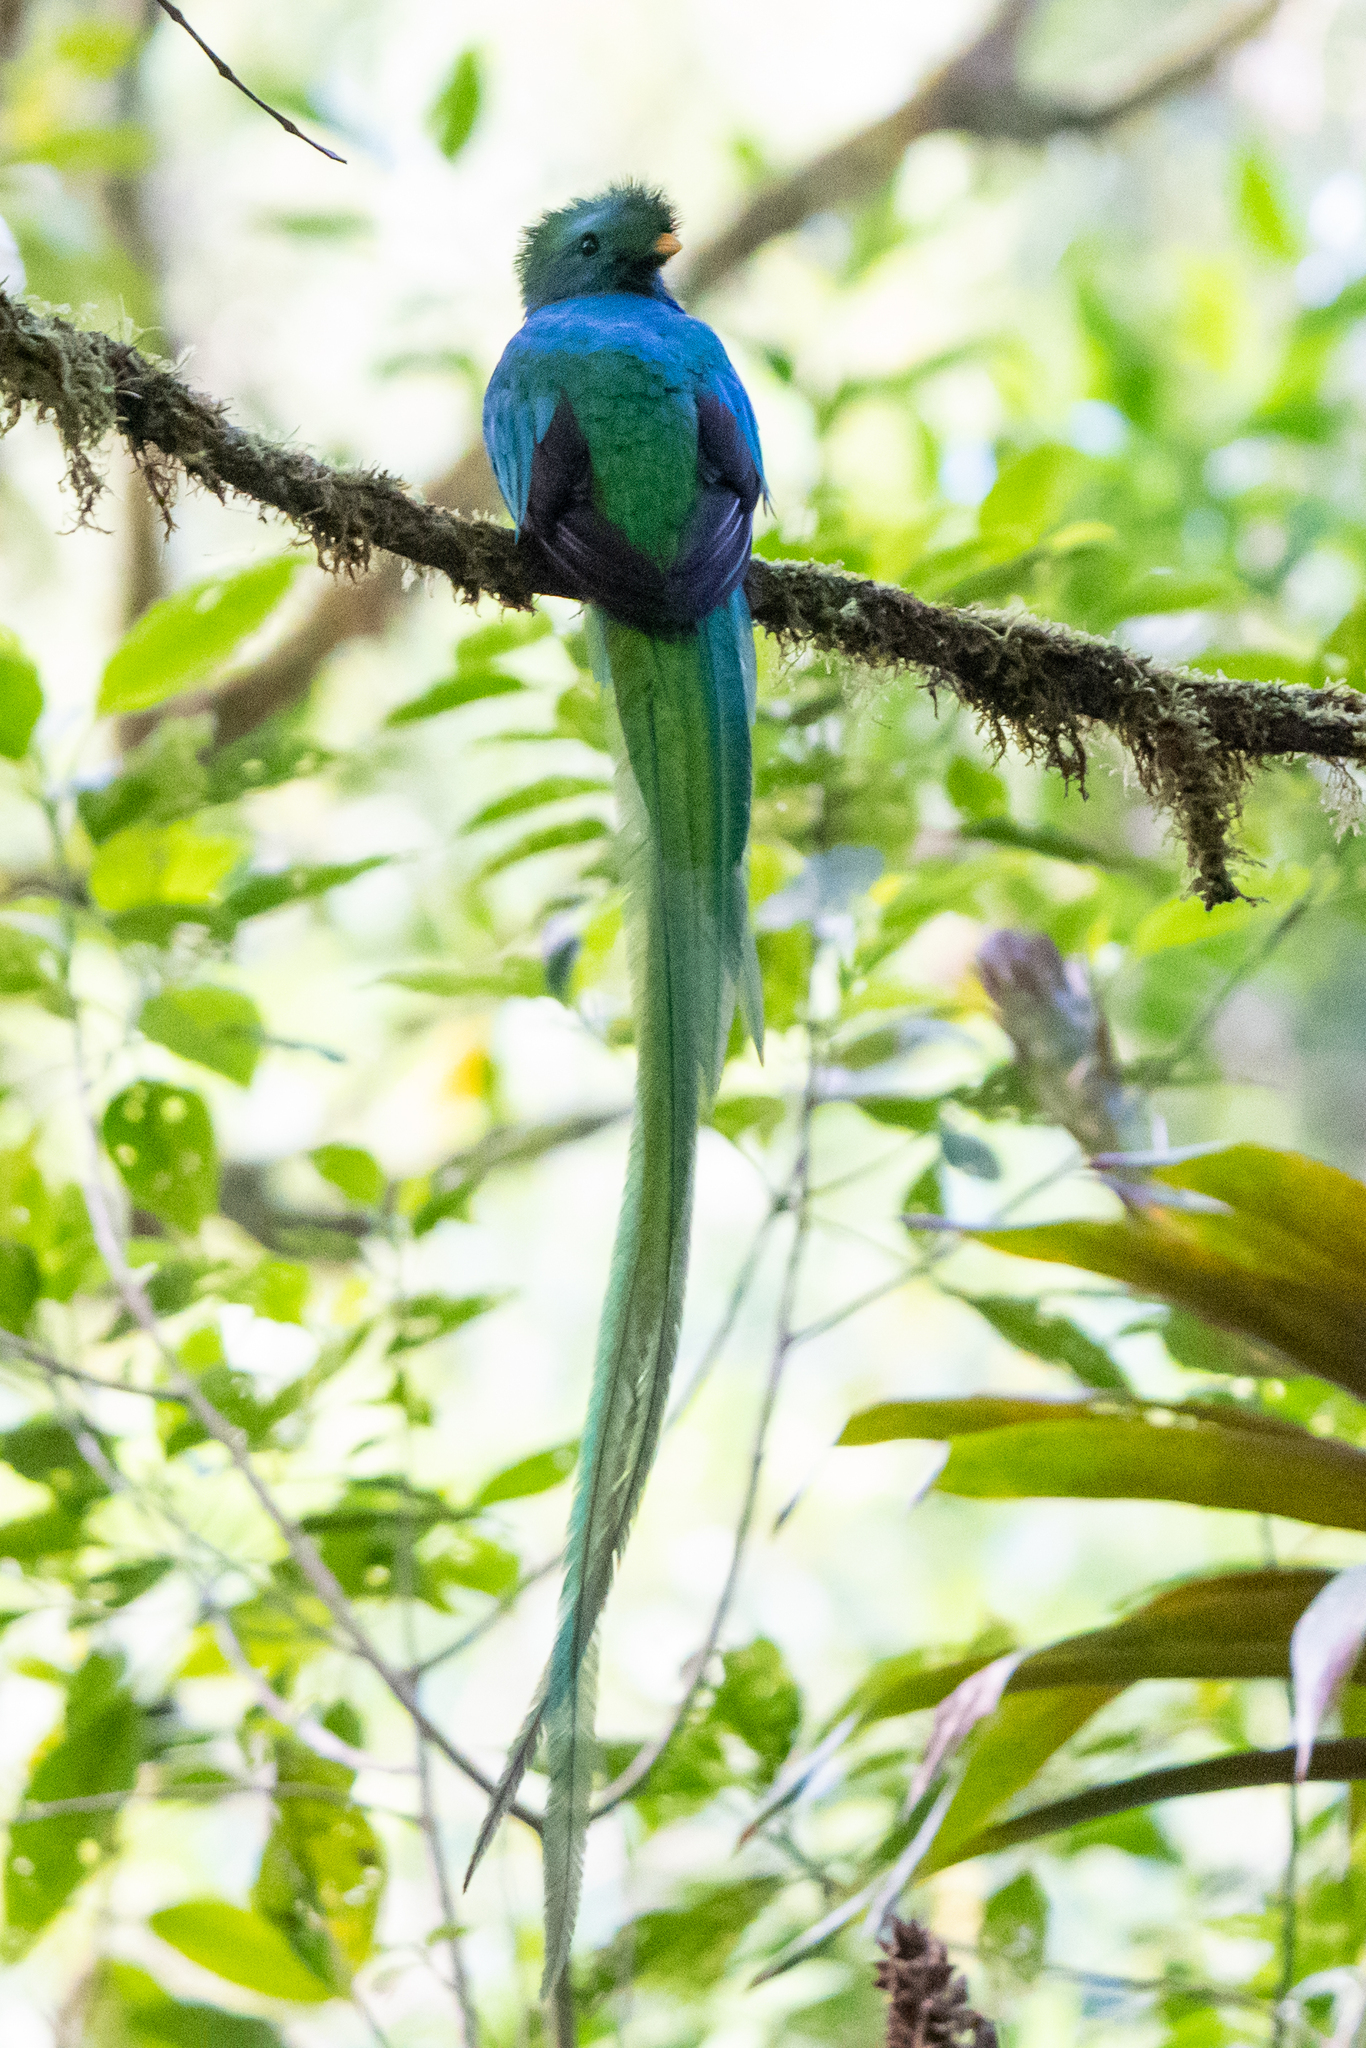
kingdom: Animalia
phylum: Chordata
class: Aves
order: Trogoniformes
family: Trogonidae
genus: Pharomachrus
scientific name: Pharomachrus mocinno
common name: Resplendent quetzal
